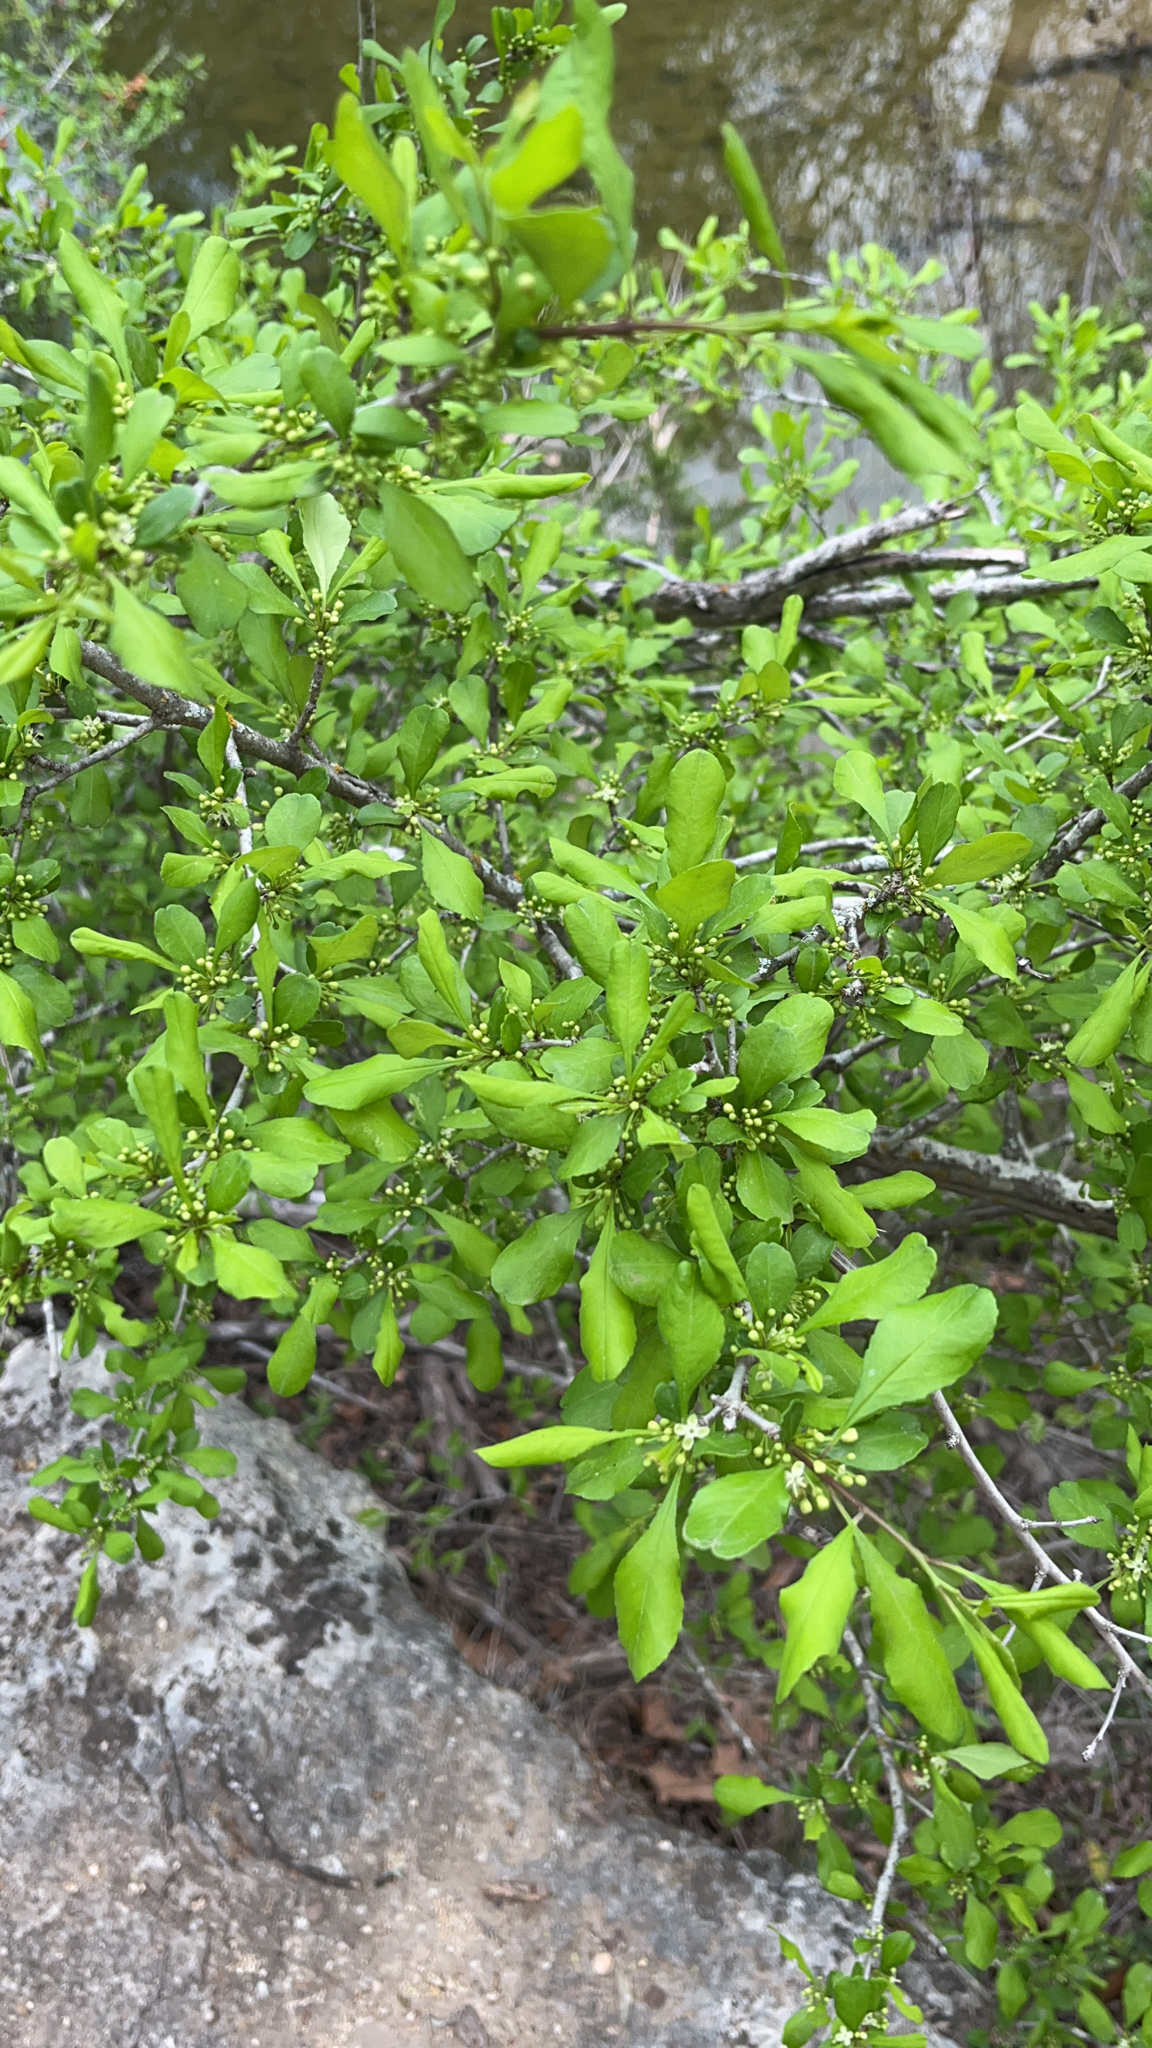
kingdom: Plantae
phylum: Tracheophyta
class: Magnoliopsida
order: Aquifoliales
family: Aquifoliaceae
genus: Ilex
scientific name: Ilex decidua
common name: Possum-haw
